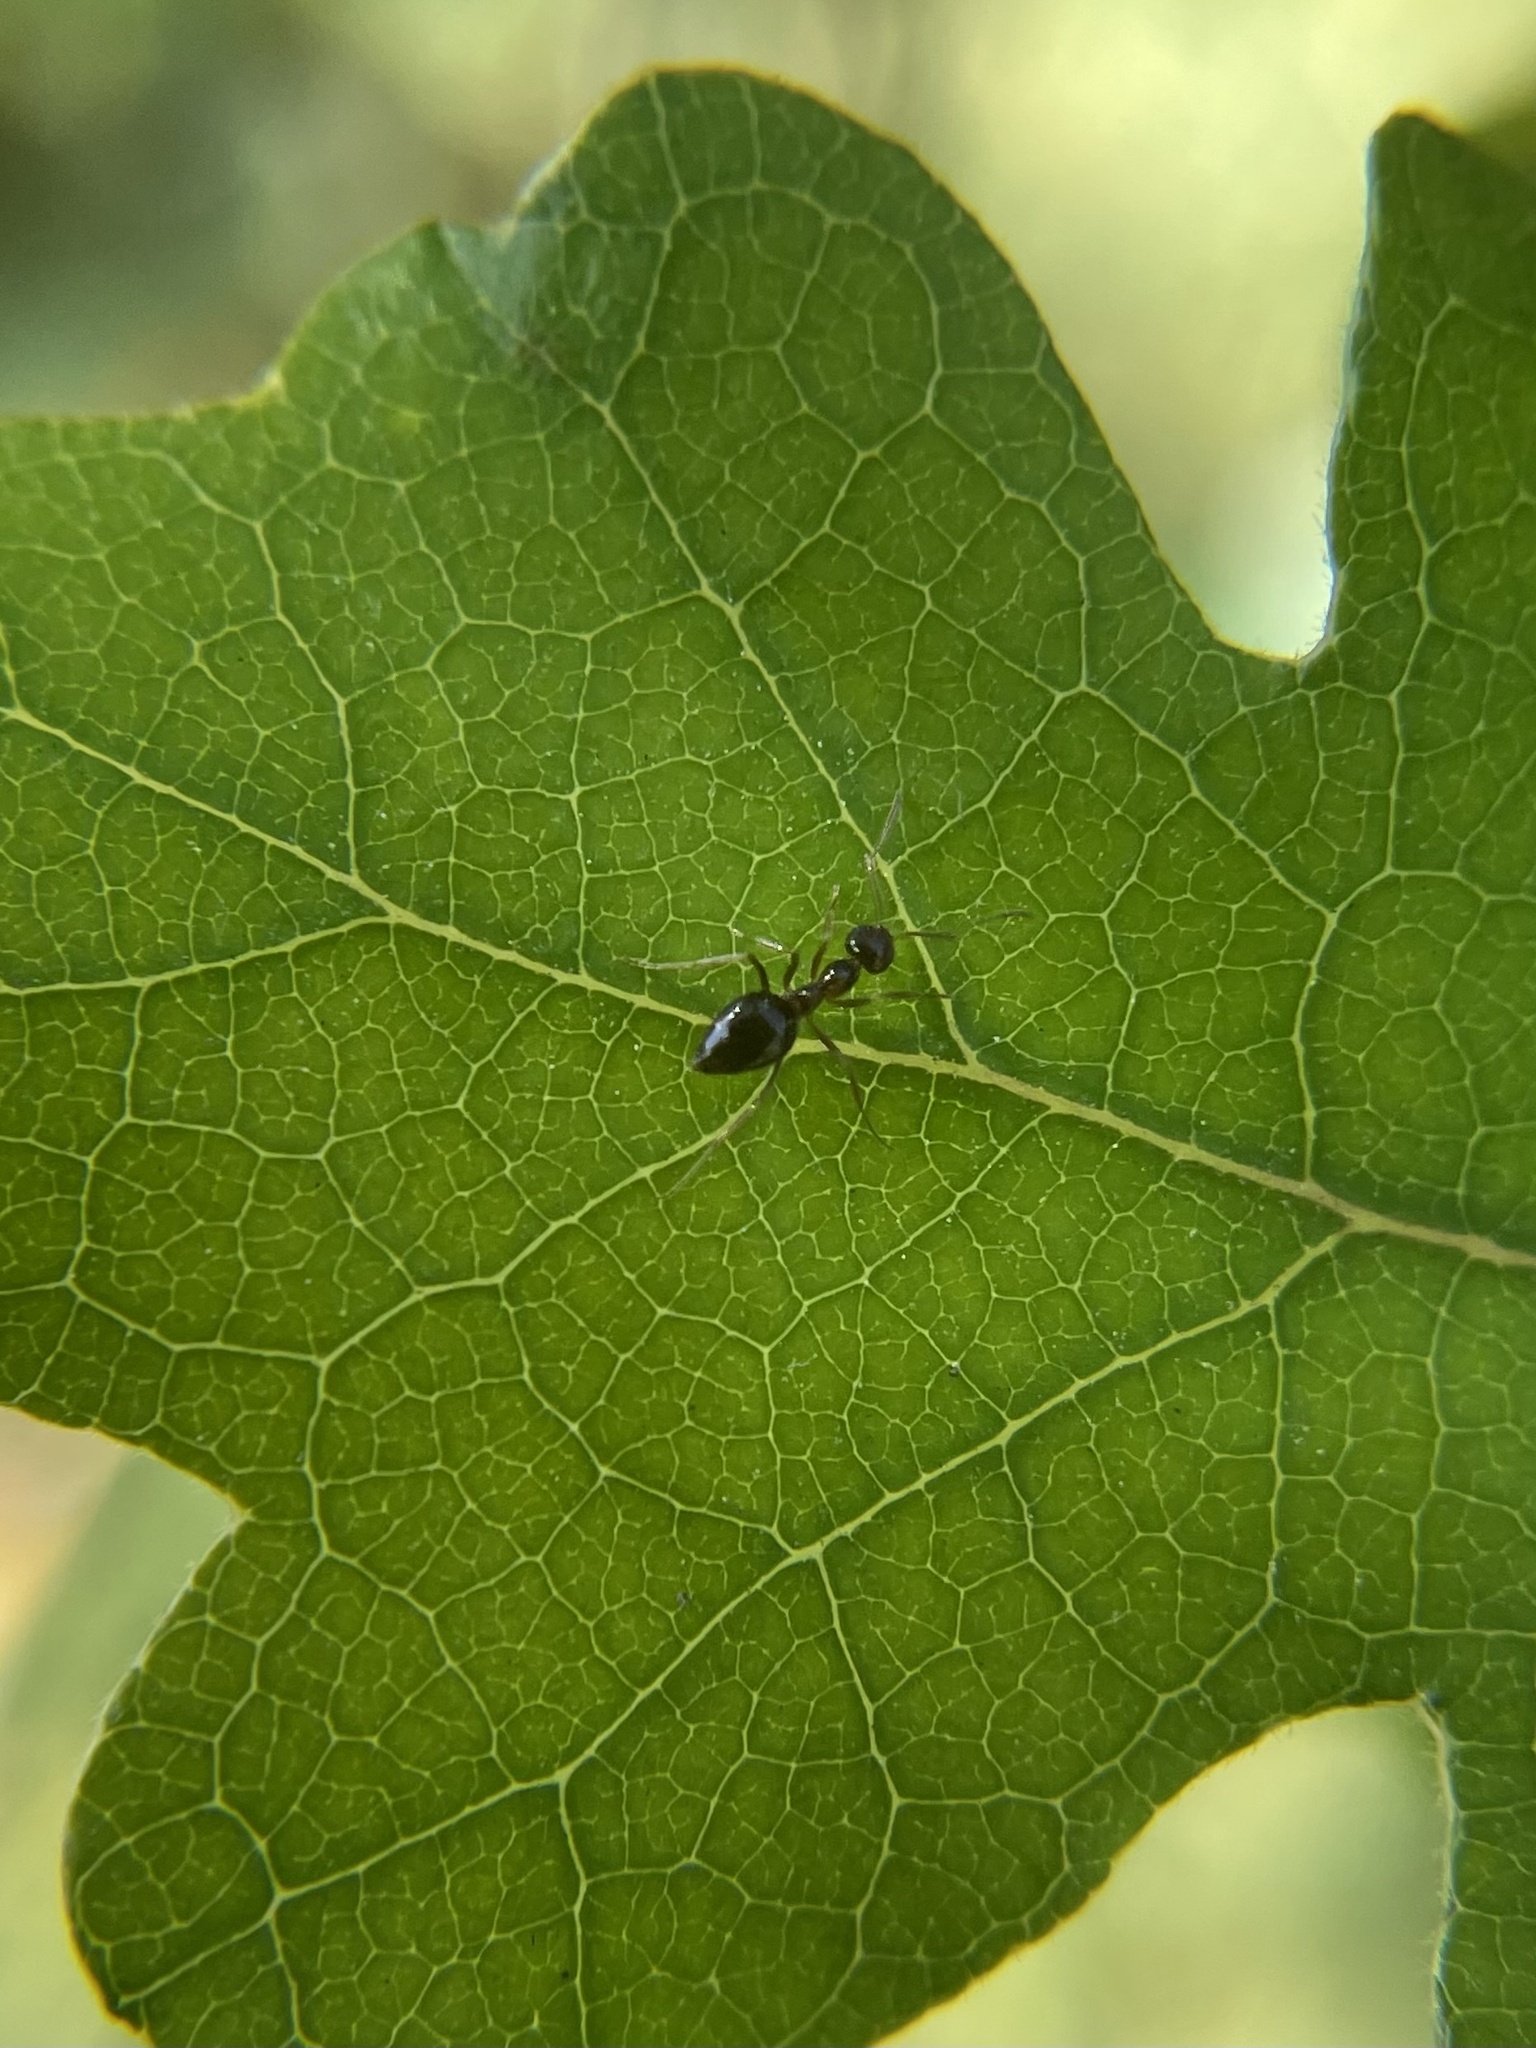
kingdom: Animalia
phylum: Arthropoda
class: Insecta
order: Hymenoptera
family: Formicidae
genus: Prenolepis
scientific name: Prenolepis imparis
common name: Small honey ant
